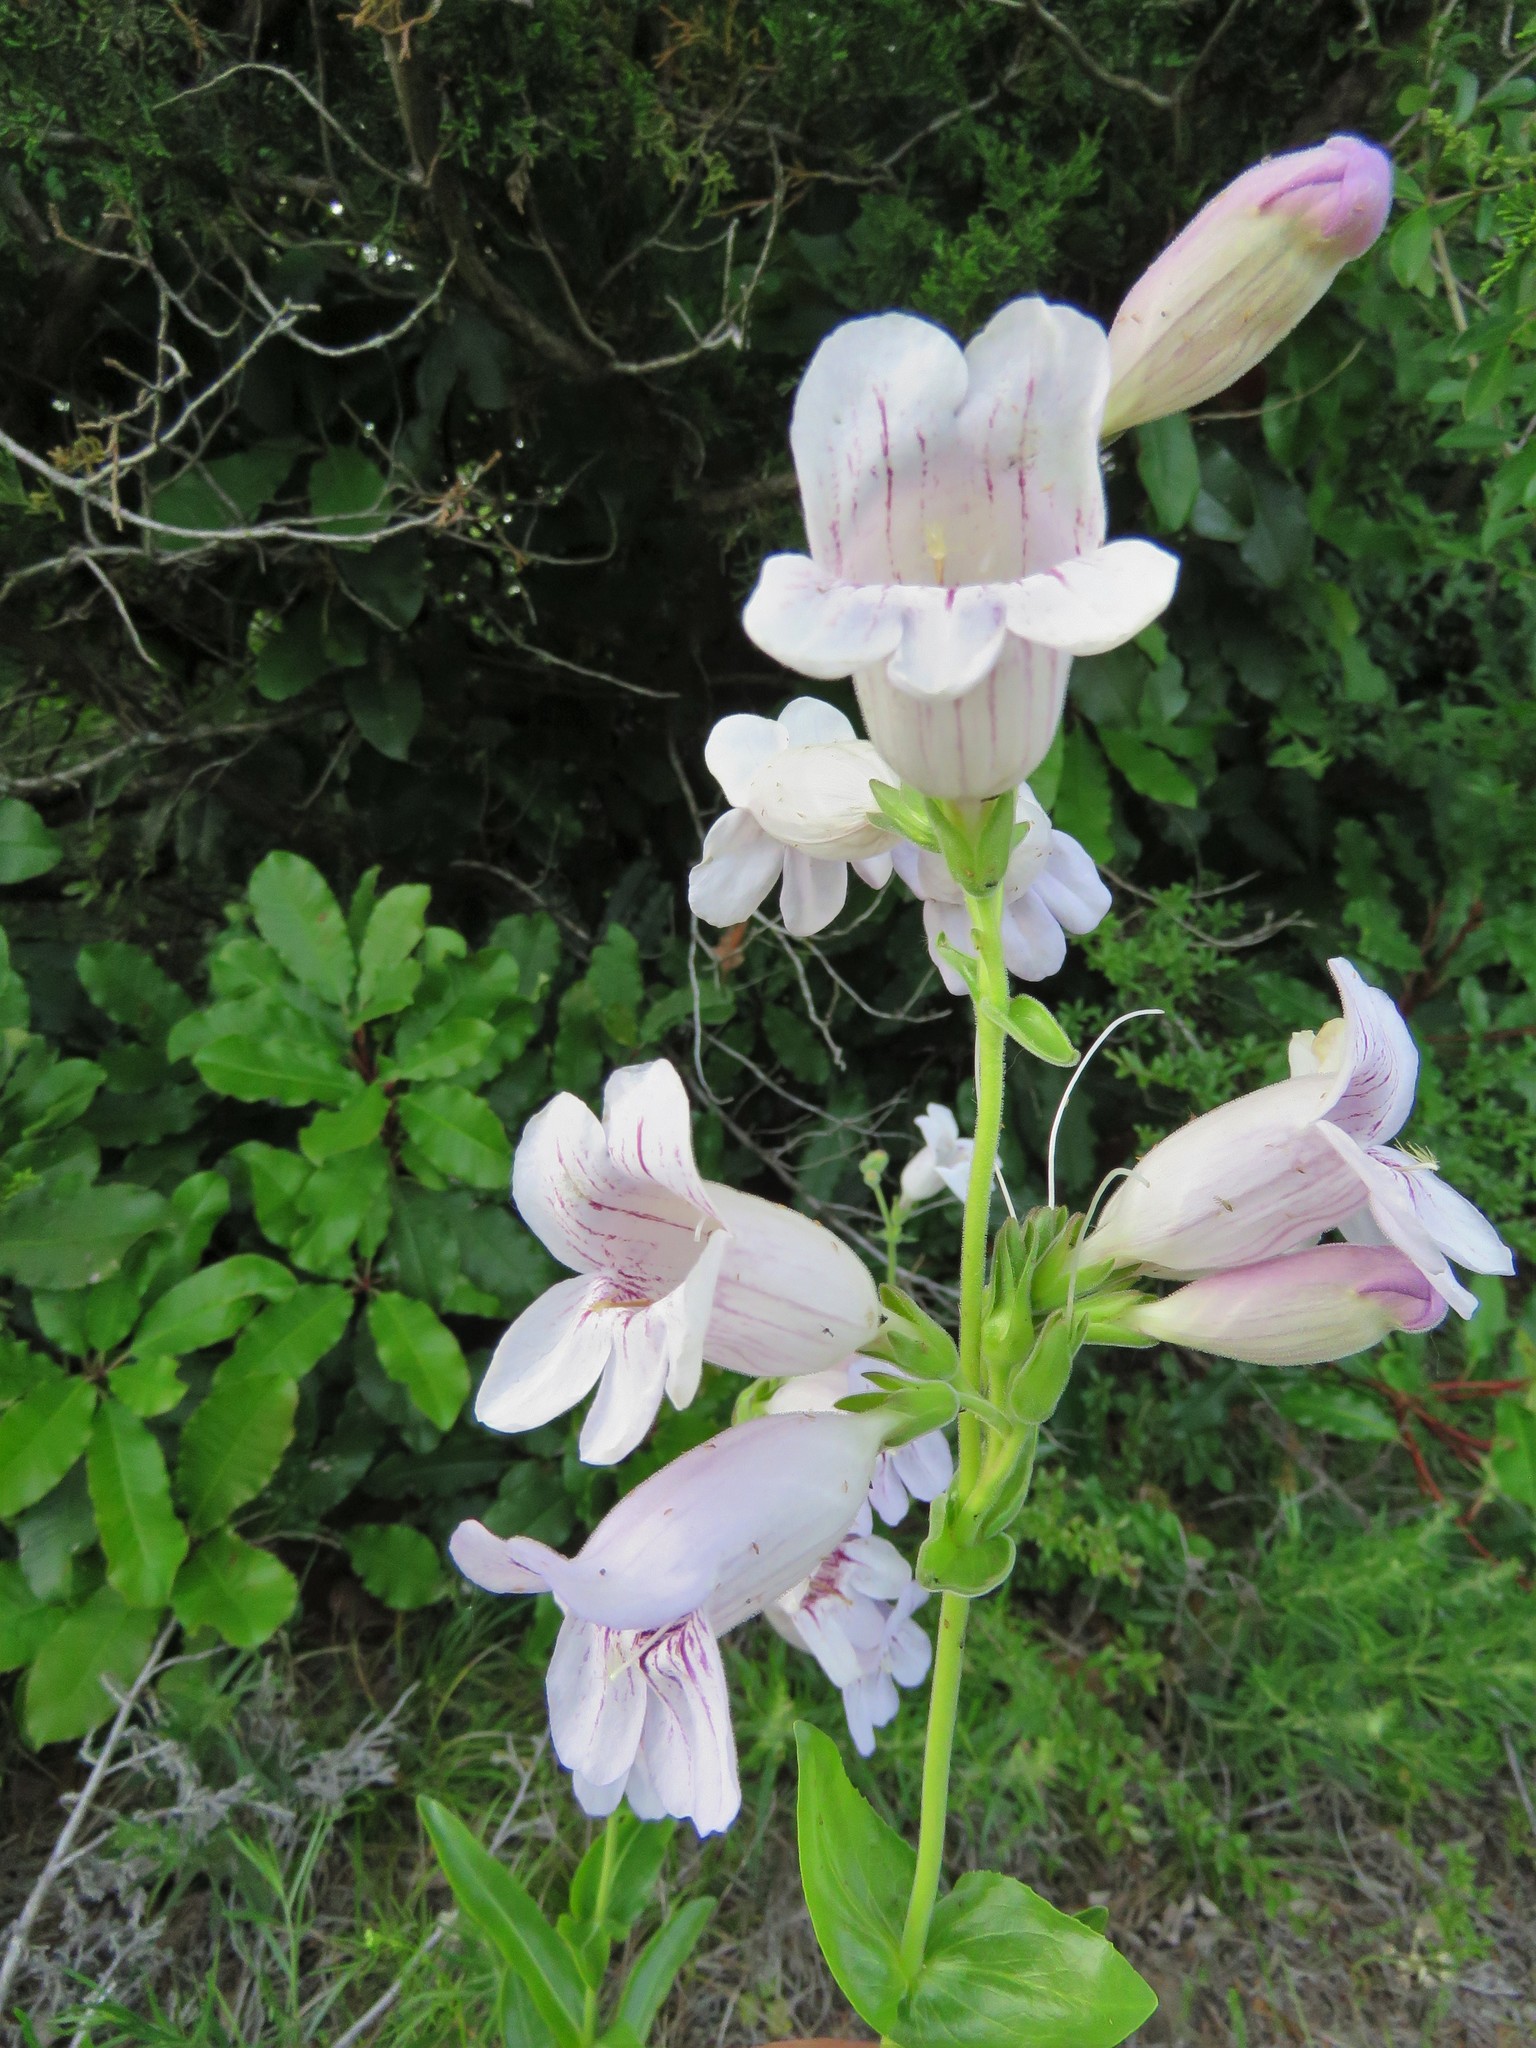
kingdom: Plantae
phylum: Tracheophyta
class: Magnoliopsida
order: Lamiales
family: Plantaginaceae
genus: Penstemon
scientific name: Penstemon cobaea
